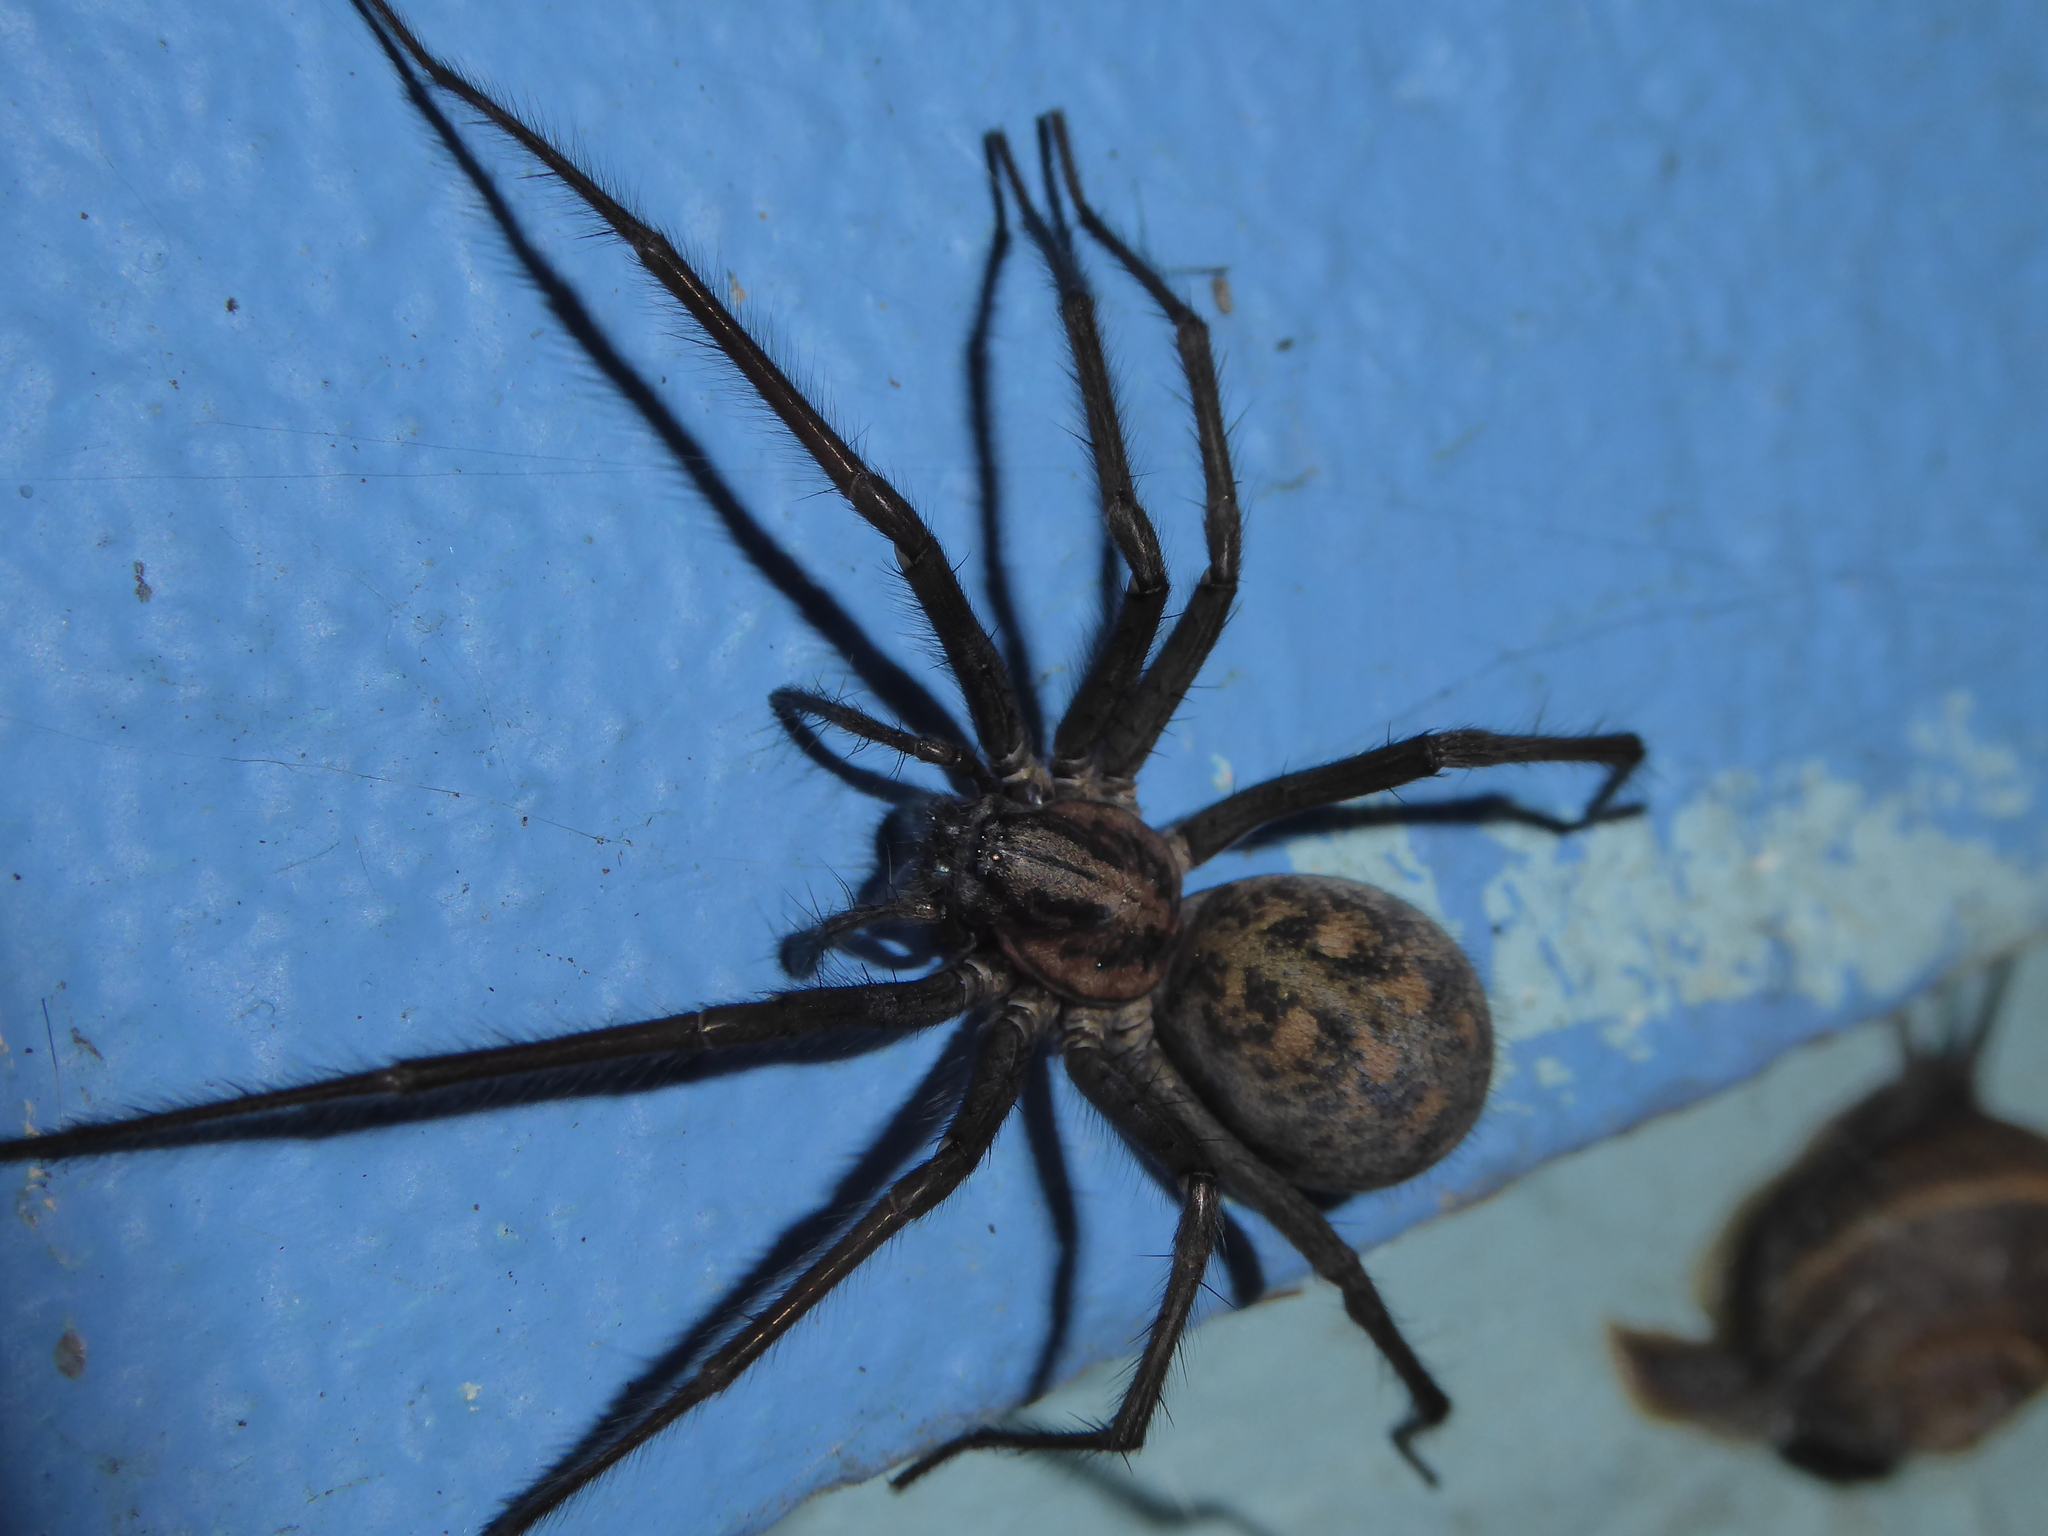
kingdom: Animalia
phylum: Arthropoda
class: Arachnida
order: Araneae
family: Agelenidae
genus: Eratigena
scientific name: Eratigena
